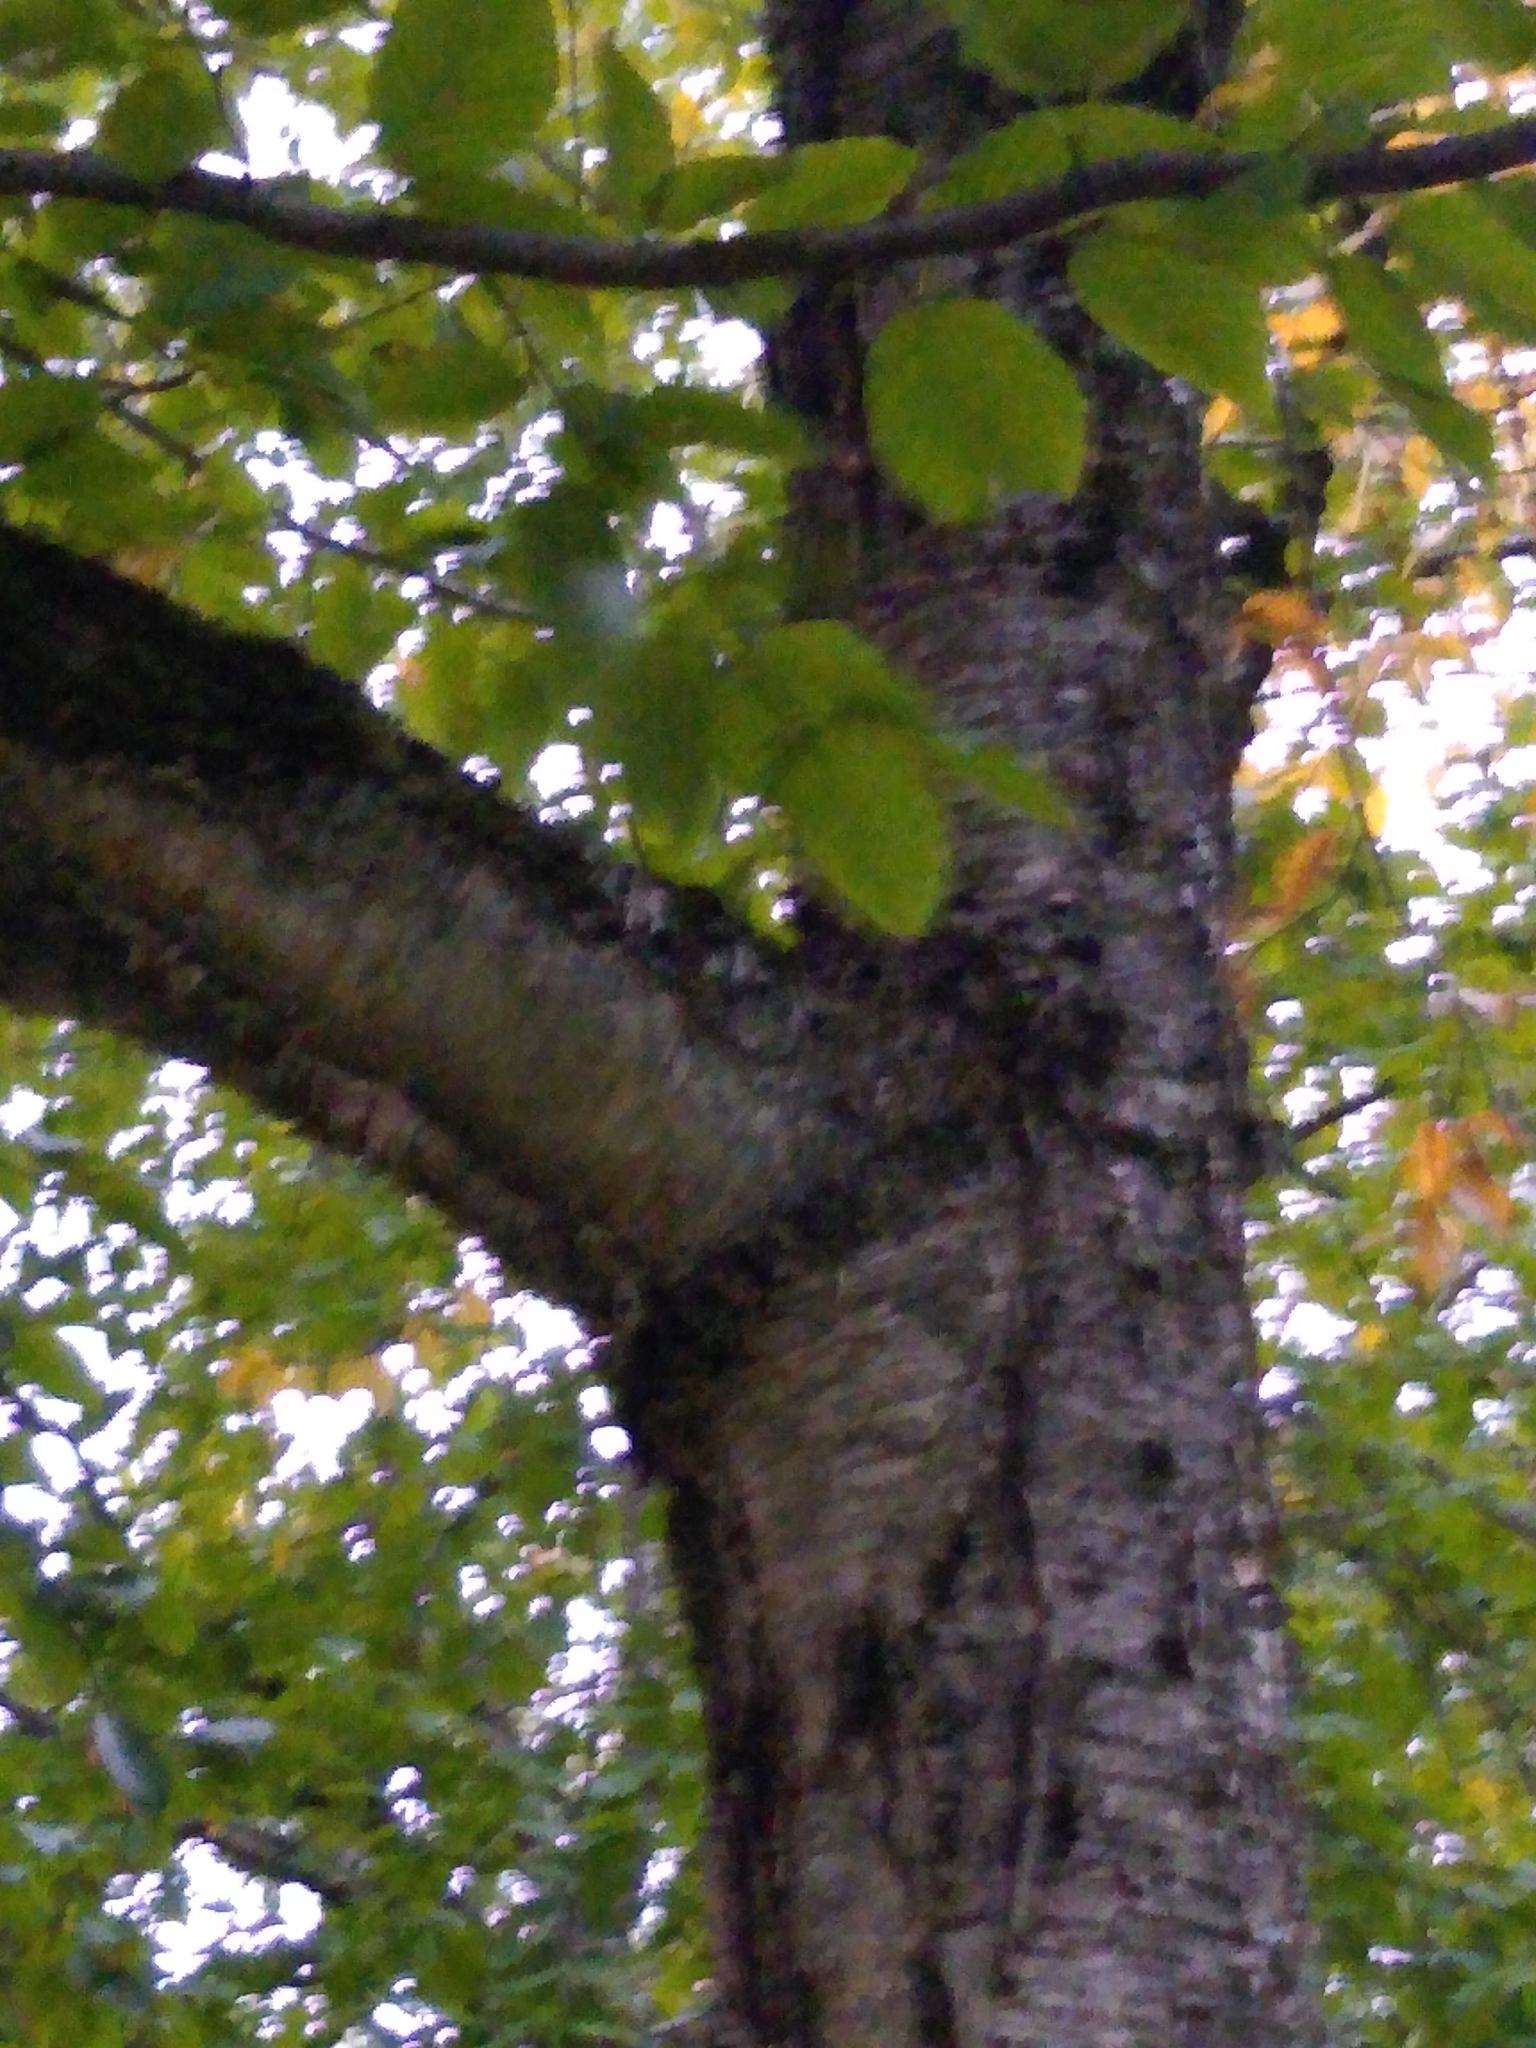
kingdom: Plantae
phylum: Tracheophyta
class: Magnoliopsida
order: Fagales
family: Betulaceae
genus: Betula
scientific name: Betula alleghaniensis
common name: Yellow birch
